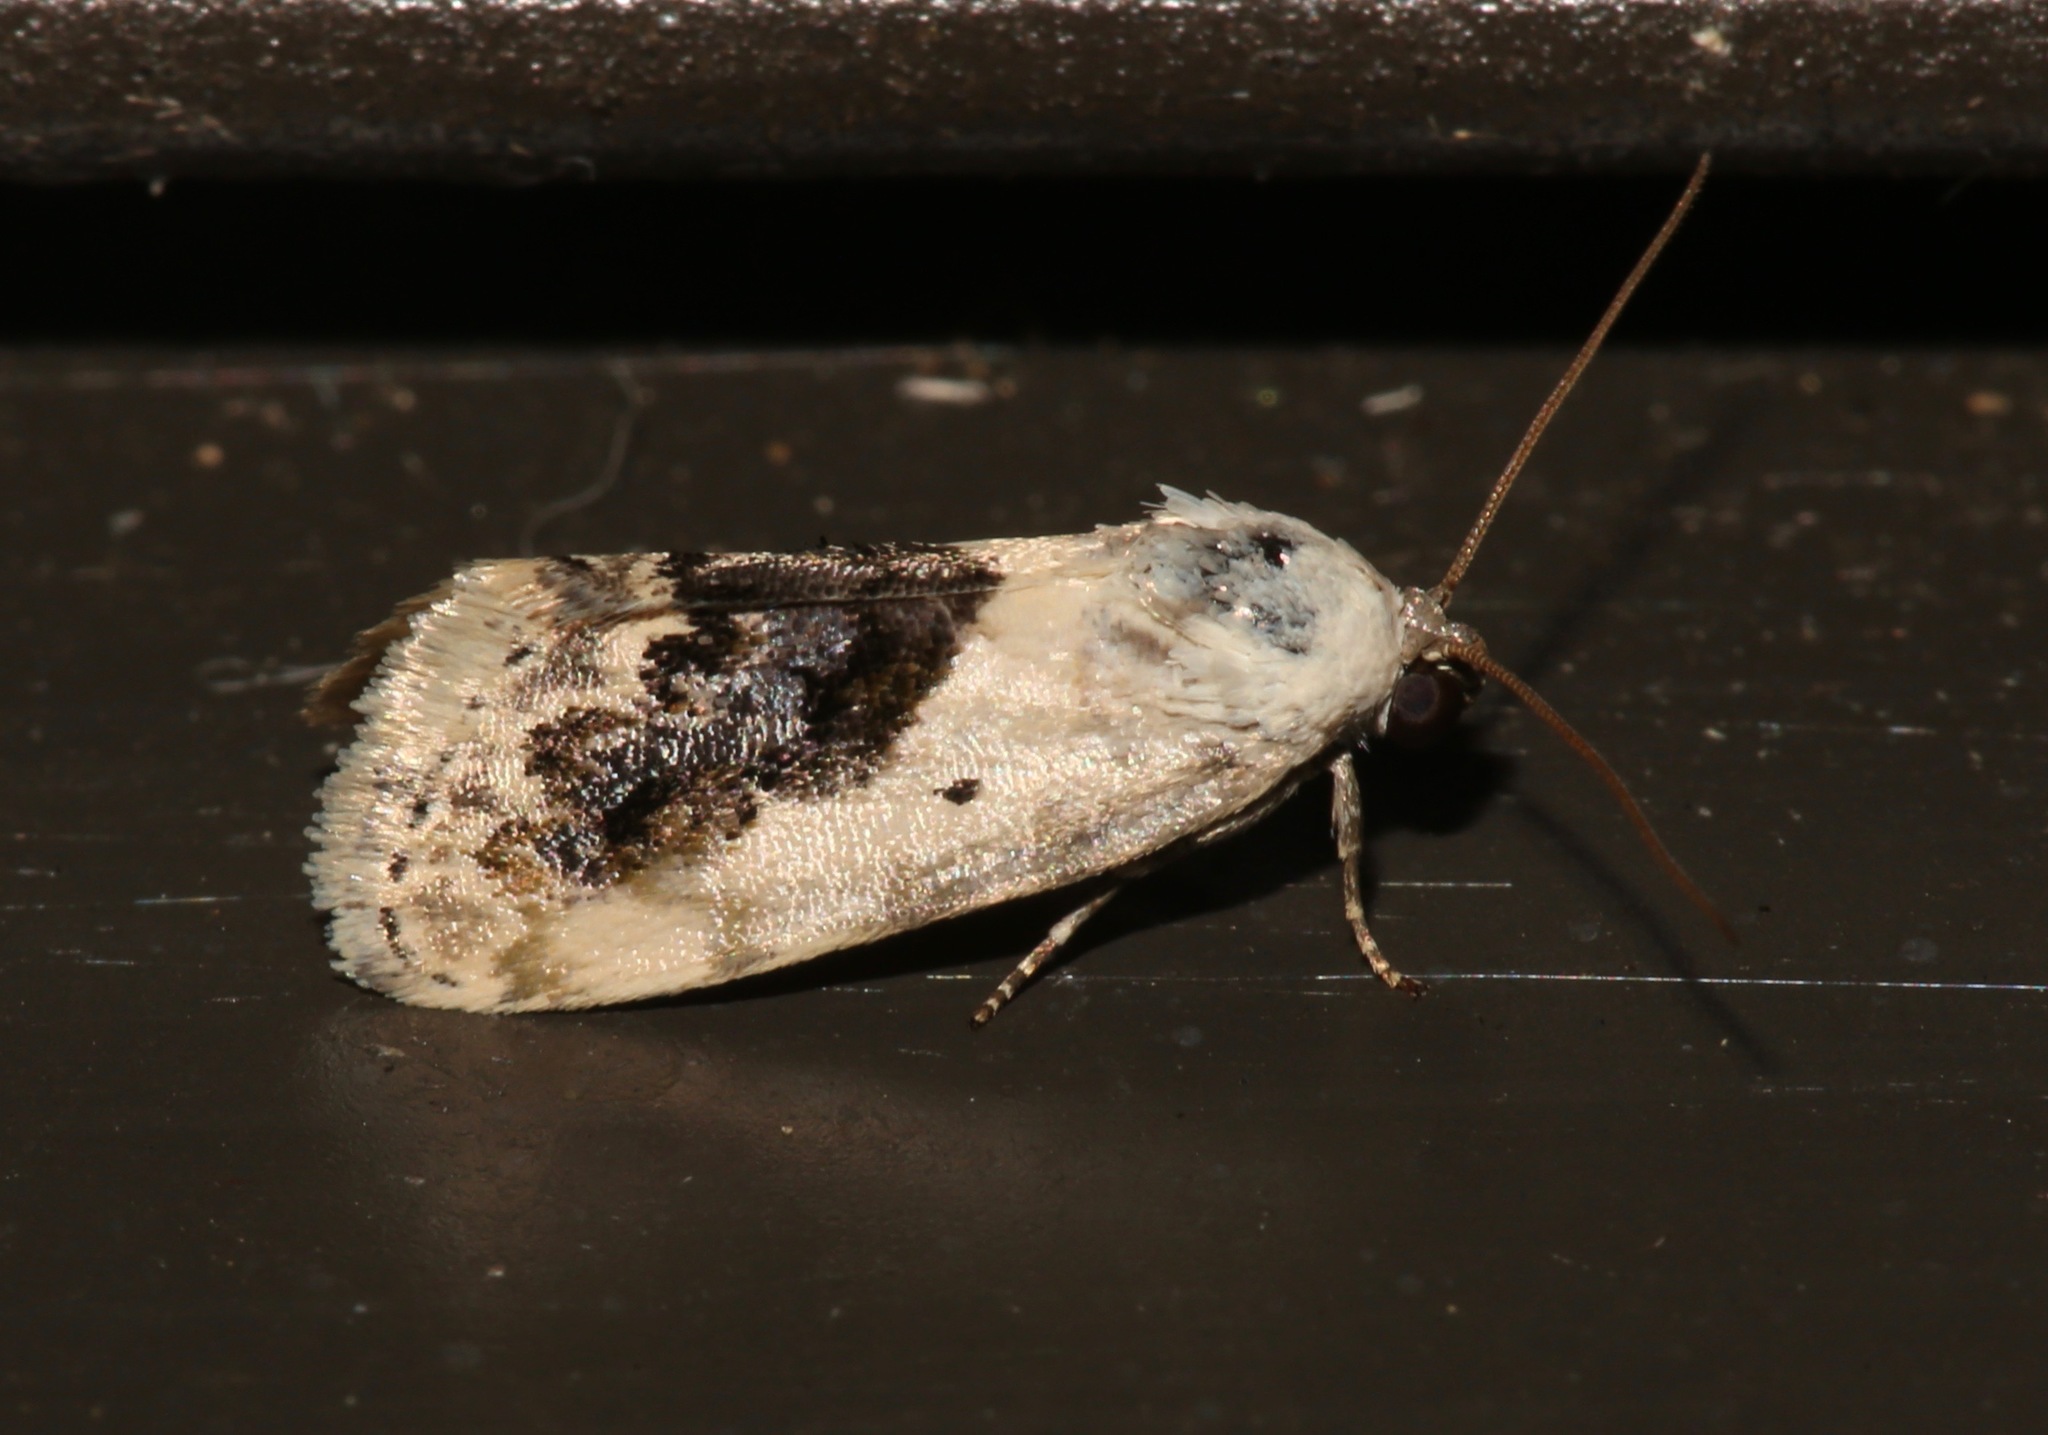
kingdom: Animalia
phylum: Arthropoda
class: Insecta
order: Lepidoptera
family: Noctuidae
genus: Acontia
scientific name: Acontia erastrioides
